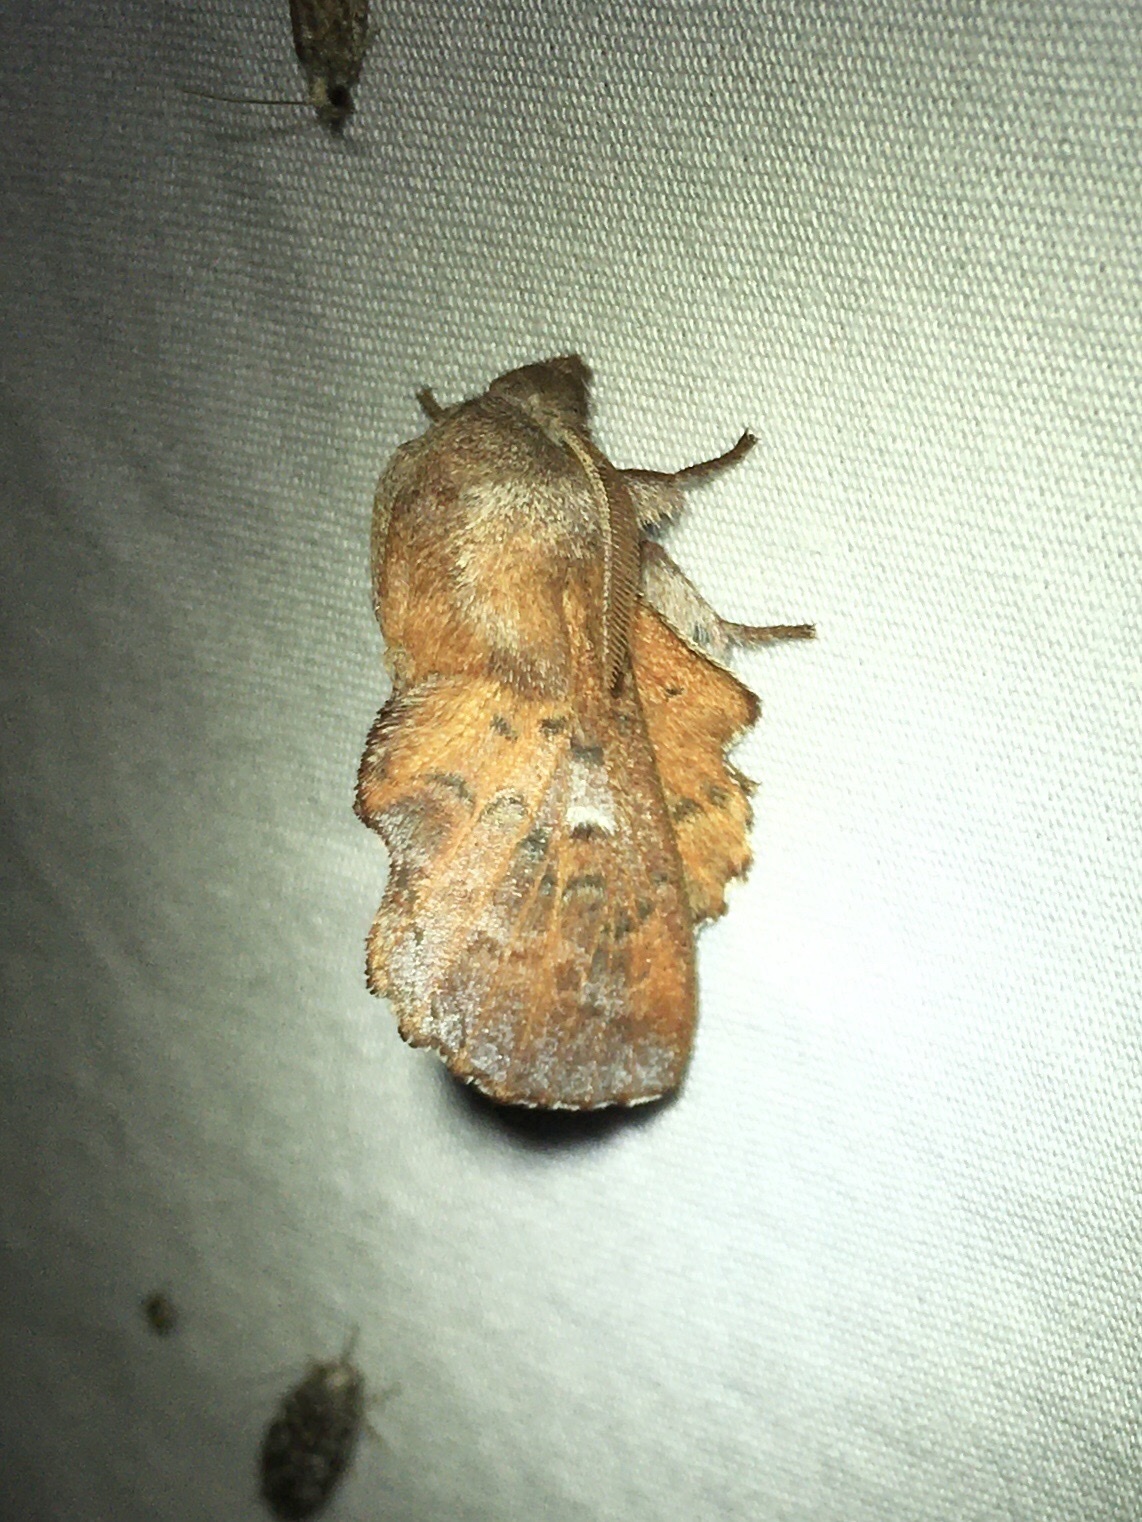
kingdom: Animalia
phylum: Arthropoda
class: Insecta
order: Lepidoptera
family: Lasiocampidae
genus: Phyllodesma
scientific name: Phyllodesma americana
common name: American lappet moth
